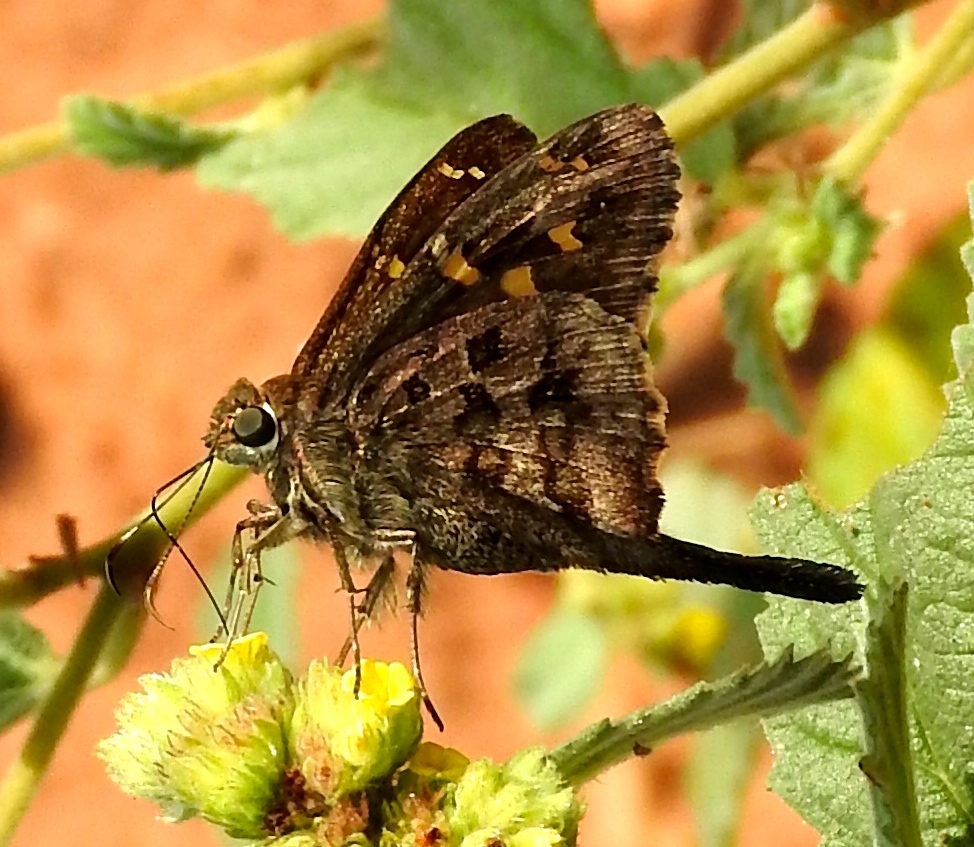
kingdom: Animalia
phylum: Arthropoda
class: Insecta
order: Lepidoptera
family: Hesperiidae
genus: Thorybes
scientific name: Thorybes
